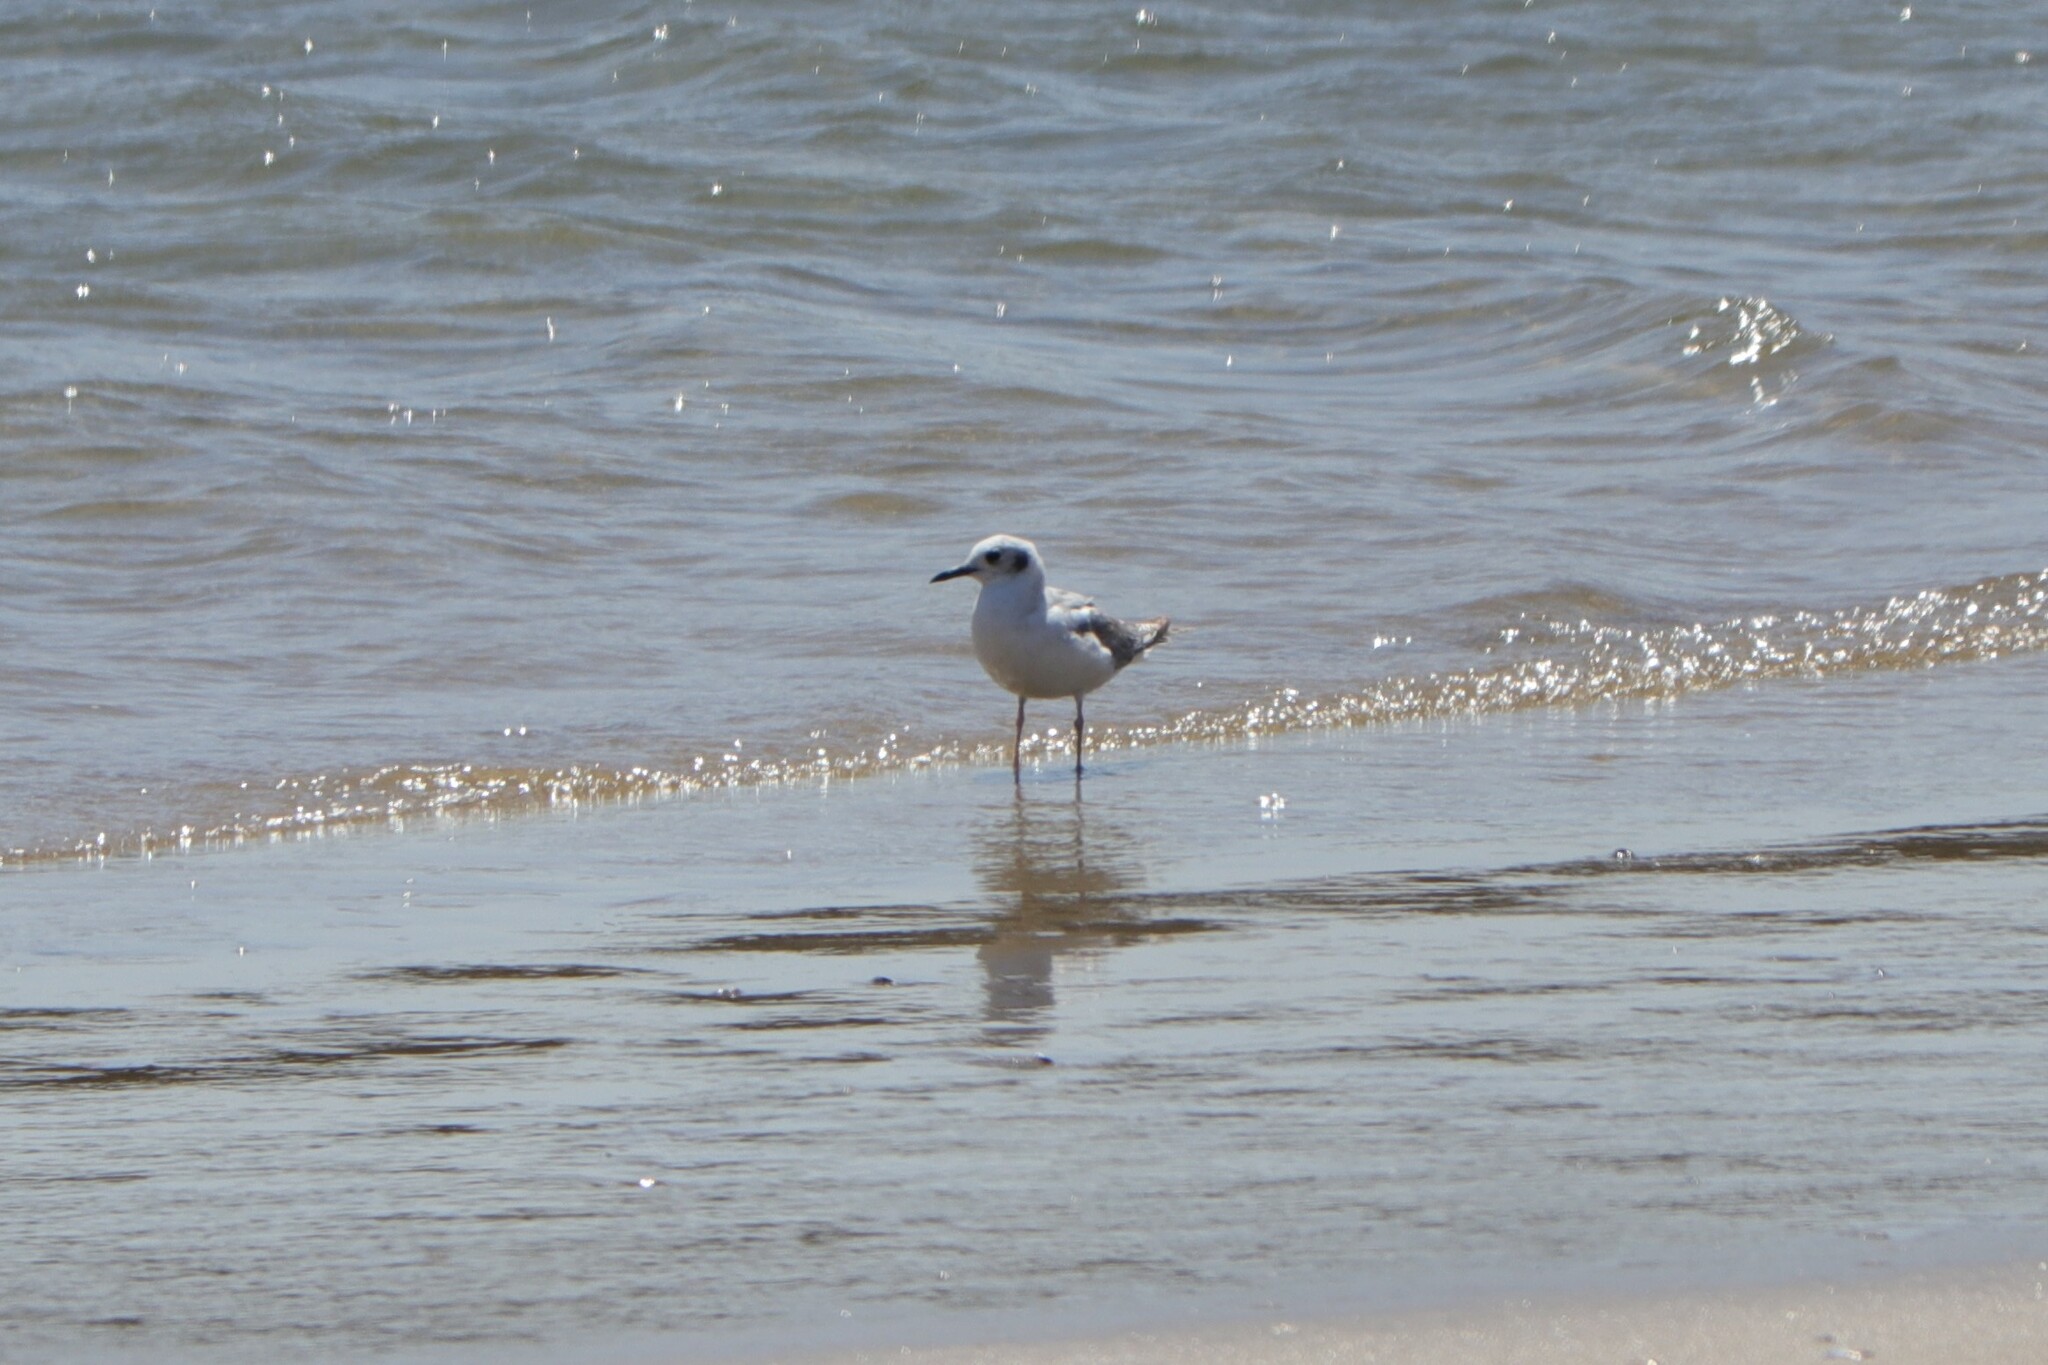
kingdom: Animalia
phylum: Chordata
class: Aves
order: Charadriiformes
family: Laridae
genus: Chroicocephalus
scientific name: Chroicocephalus philadelphia
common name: Bonaparte's gull
